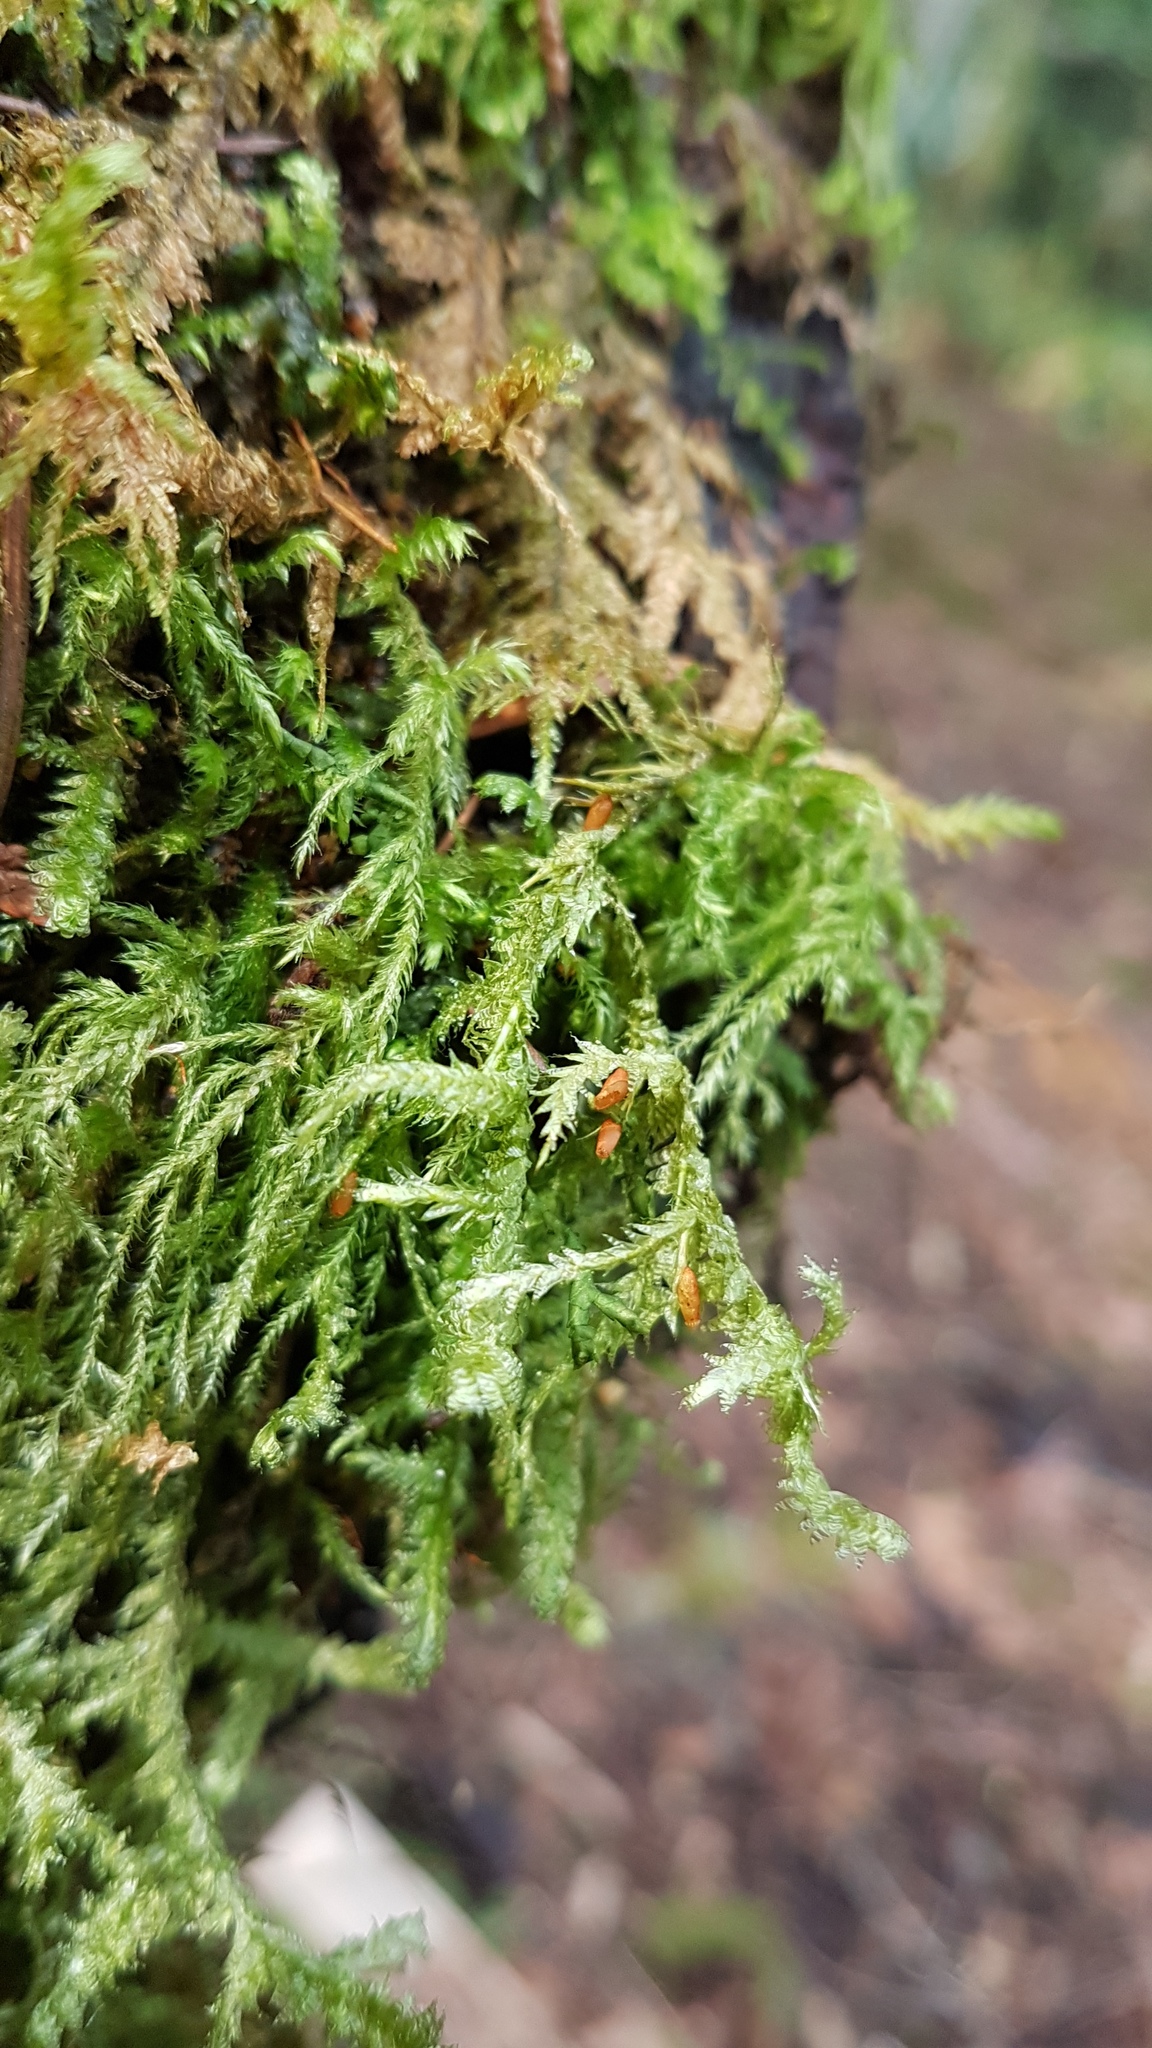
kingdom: Plantae
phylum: Bryophyta
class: Bryopsida
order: Hypnales
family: Neckeraceae
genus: Neckera
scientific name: Neckera douglasii
